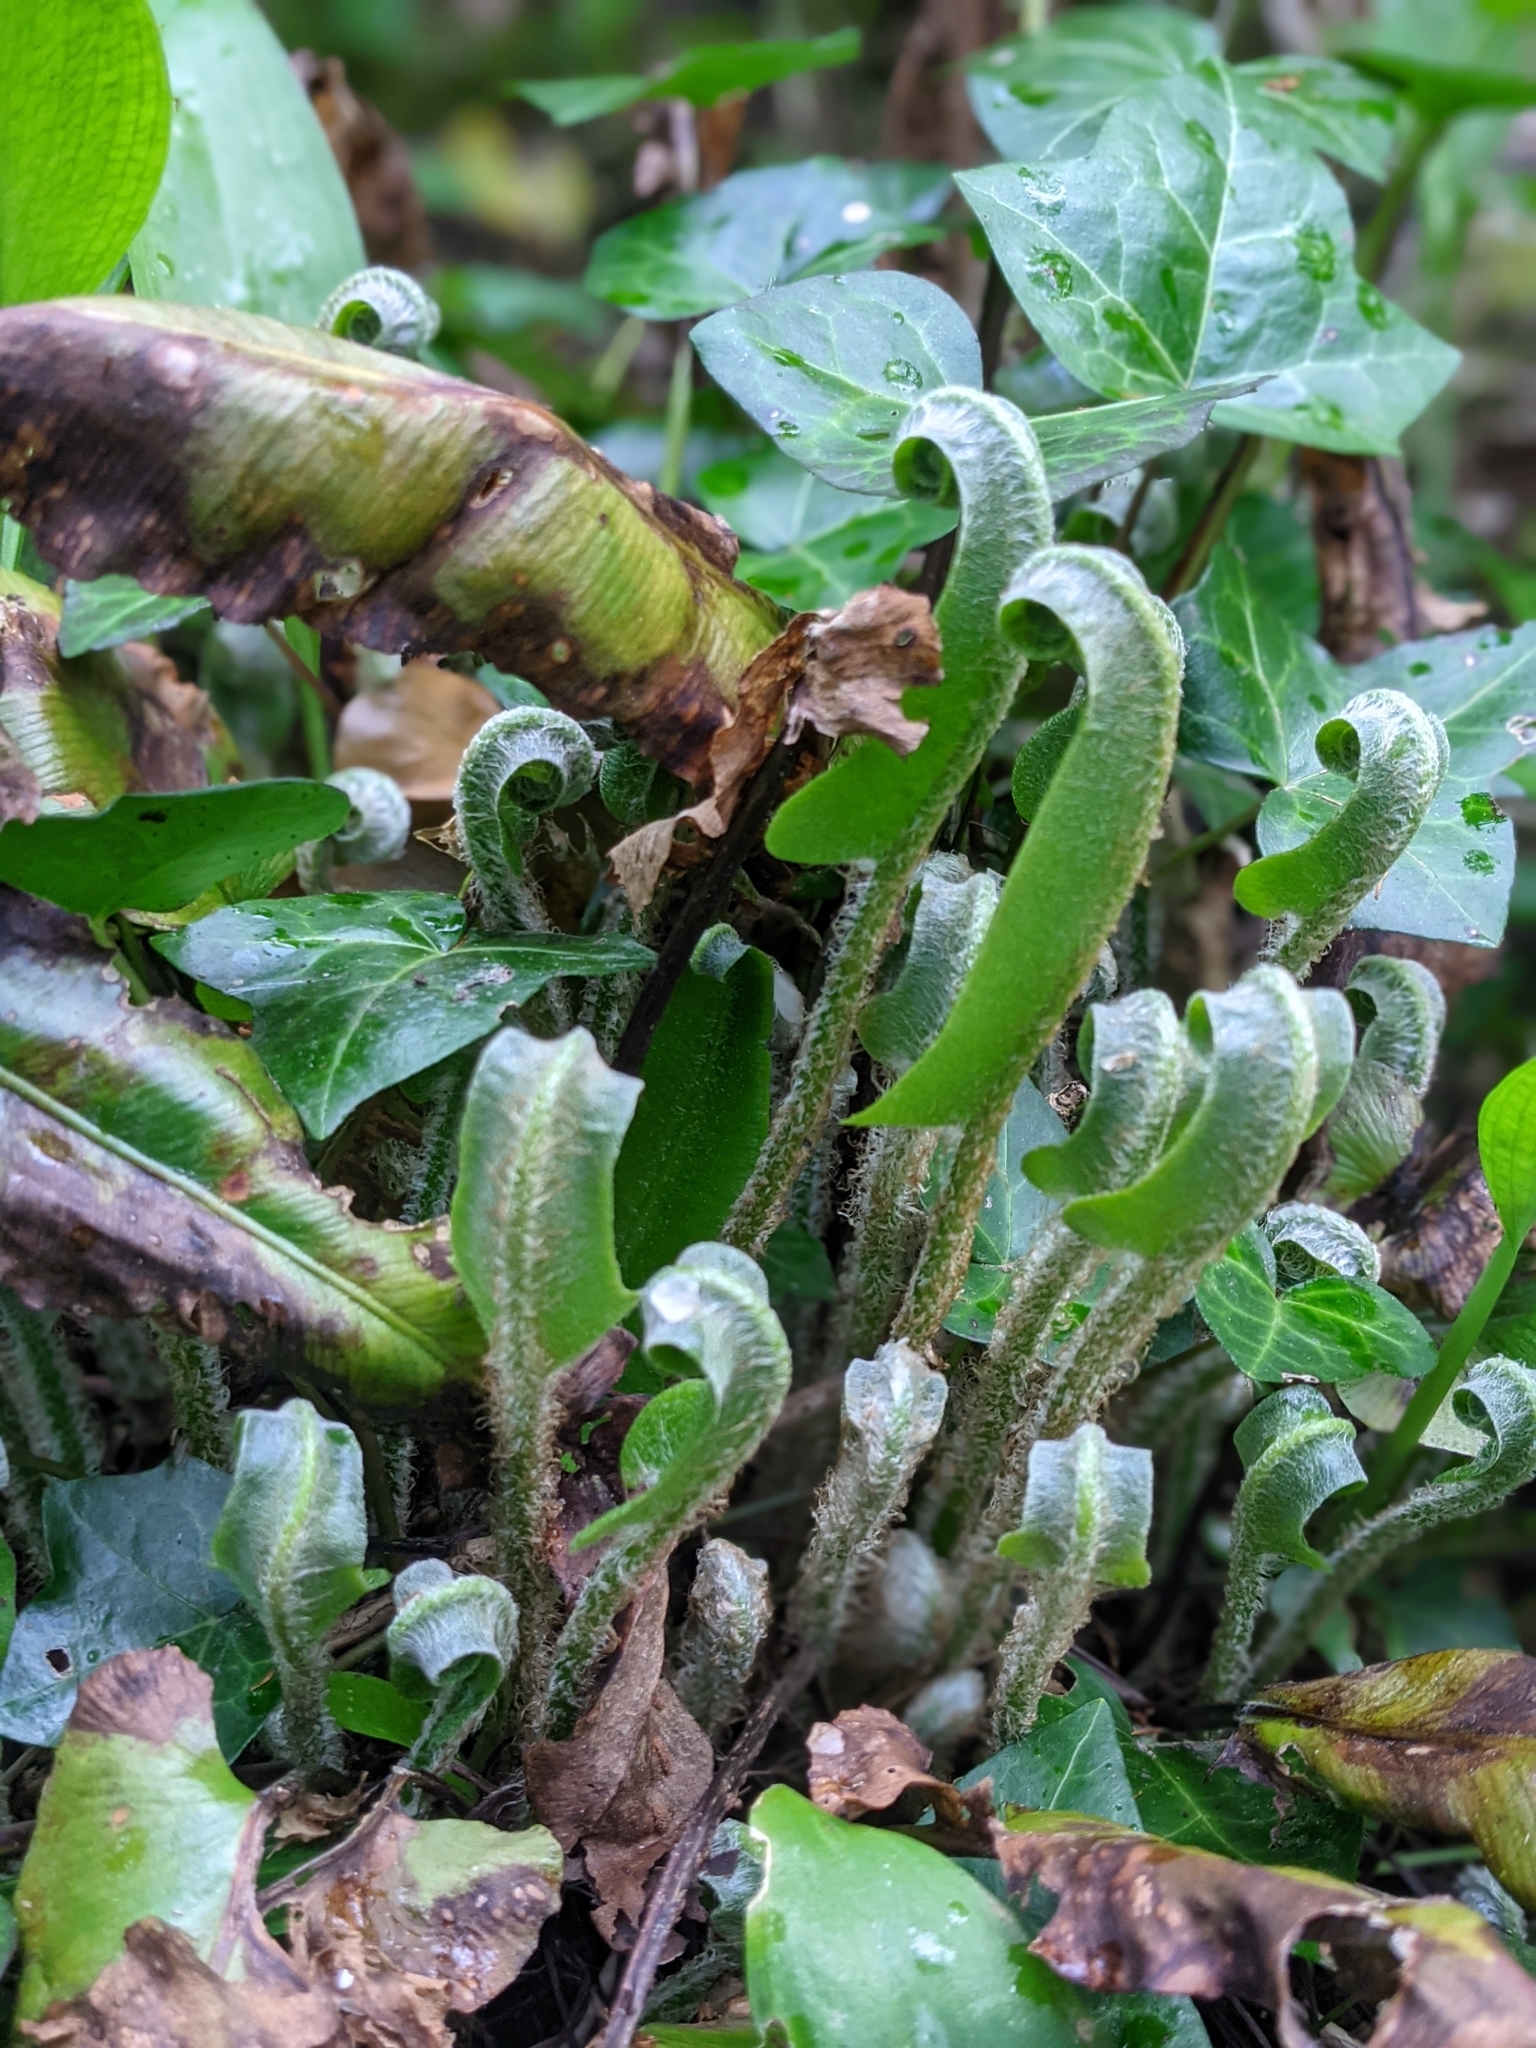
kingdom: Plantae
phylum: Tracheophyta
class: Polypodiopsida
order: Polypodiales
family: Aspleniaceae
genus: Asplenium
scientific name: Asplenium scolopendrium
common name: Hart's-tongue fern
